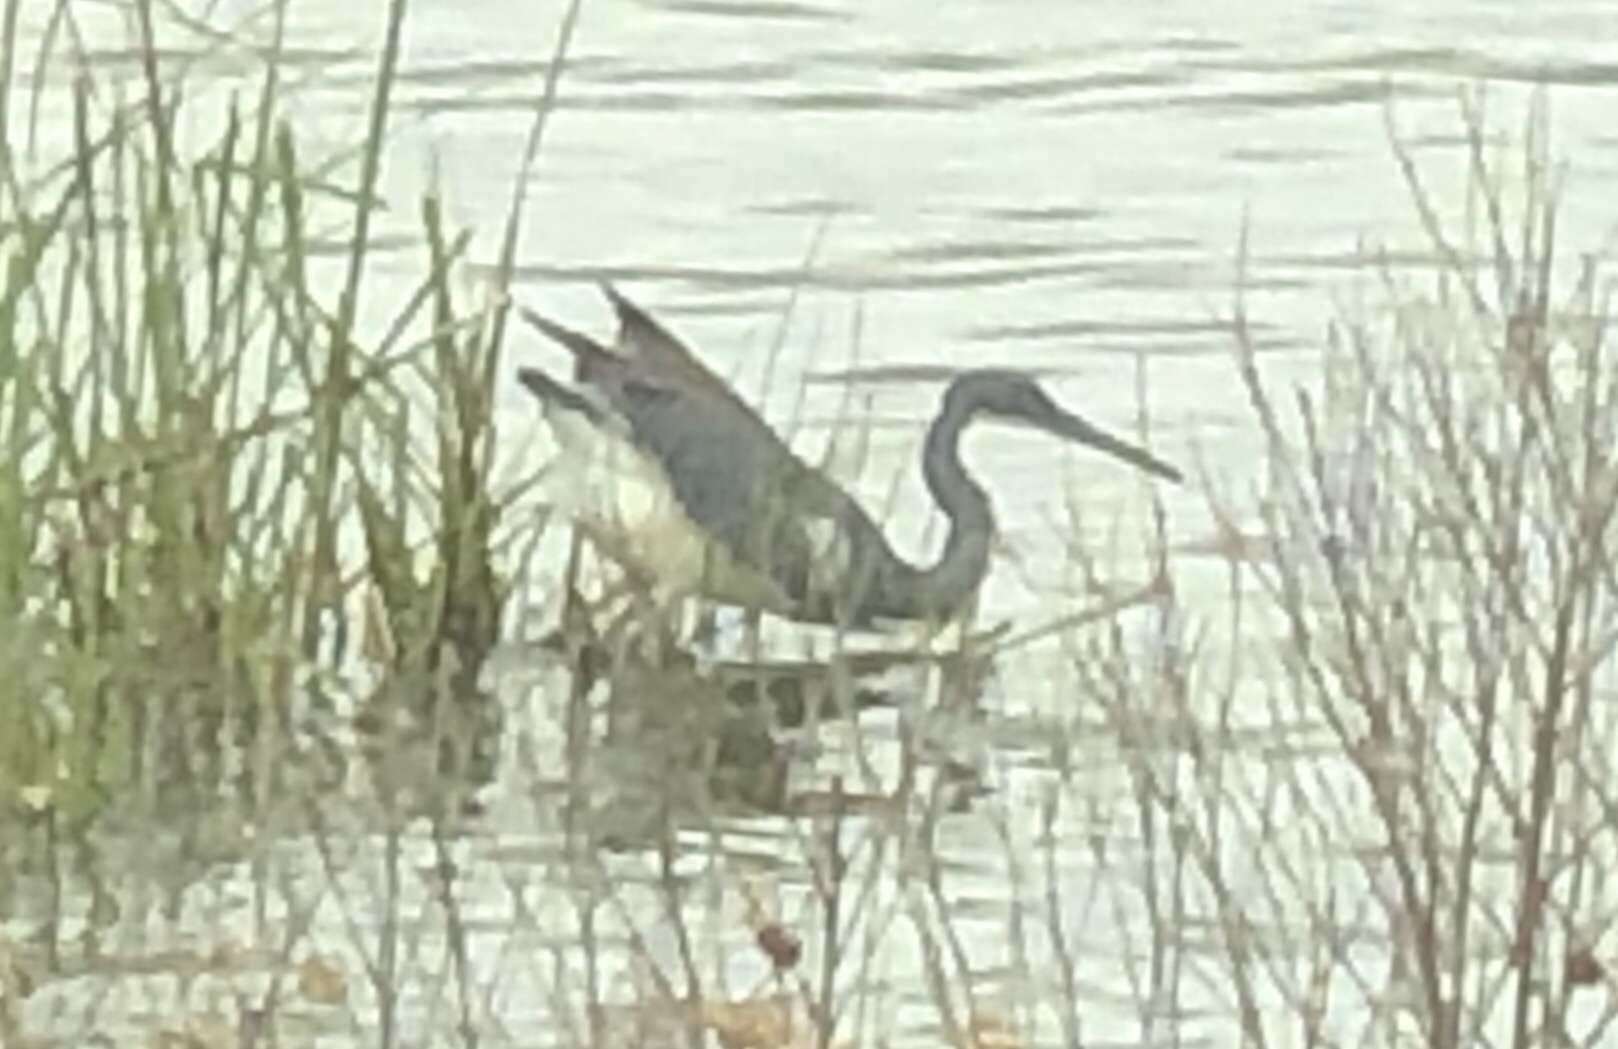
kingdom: Animalia
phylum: Chordata
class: Aves
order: Pelecaniformes
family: Ardeidae
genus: Egretta
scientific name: Egretta tricolor
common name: Tricolored heron
